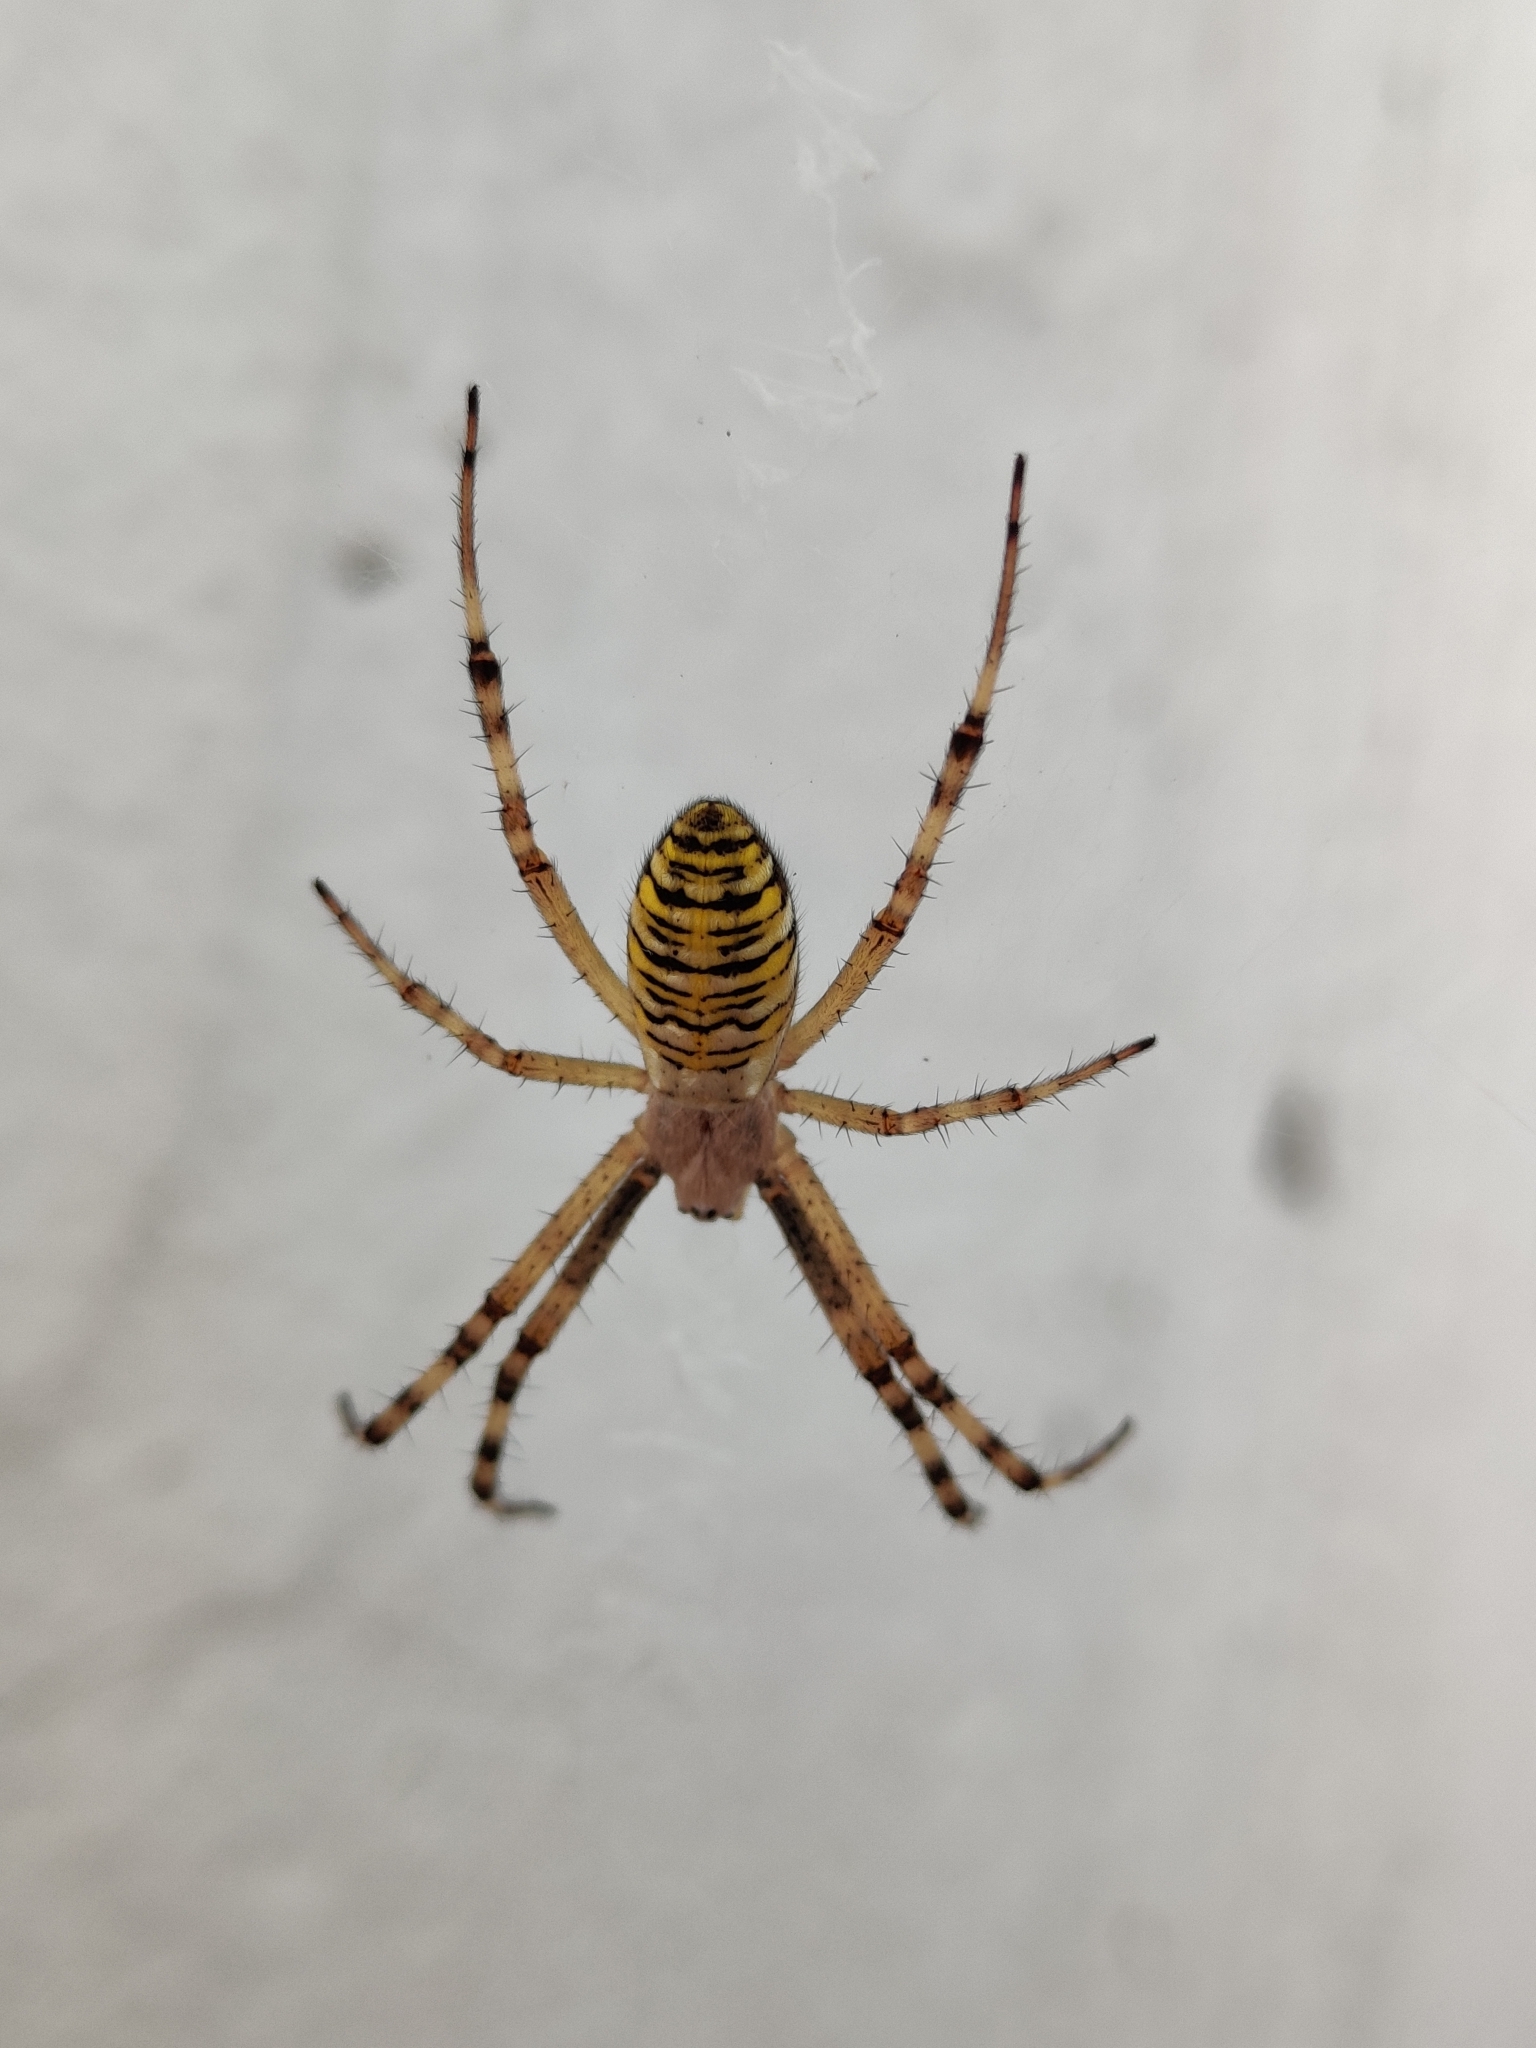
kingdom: Animalia
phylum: Arthropoda
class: Arachnida
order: Araneae
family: Araneidae
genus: Argiope
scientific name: Argiope bruennichi
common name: Wasp spider
